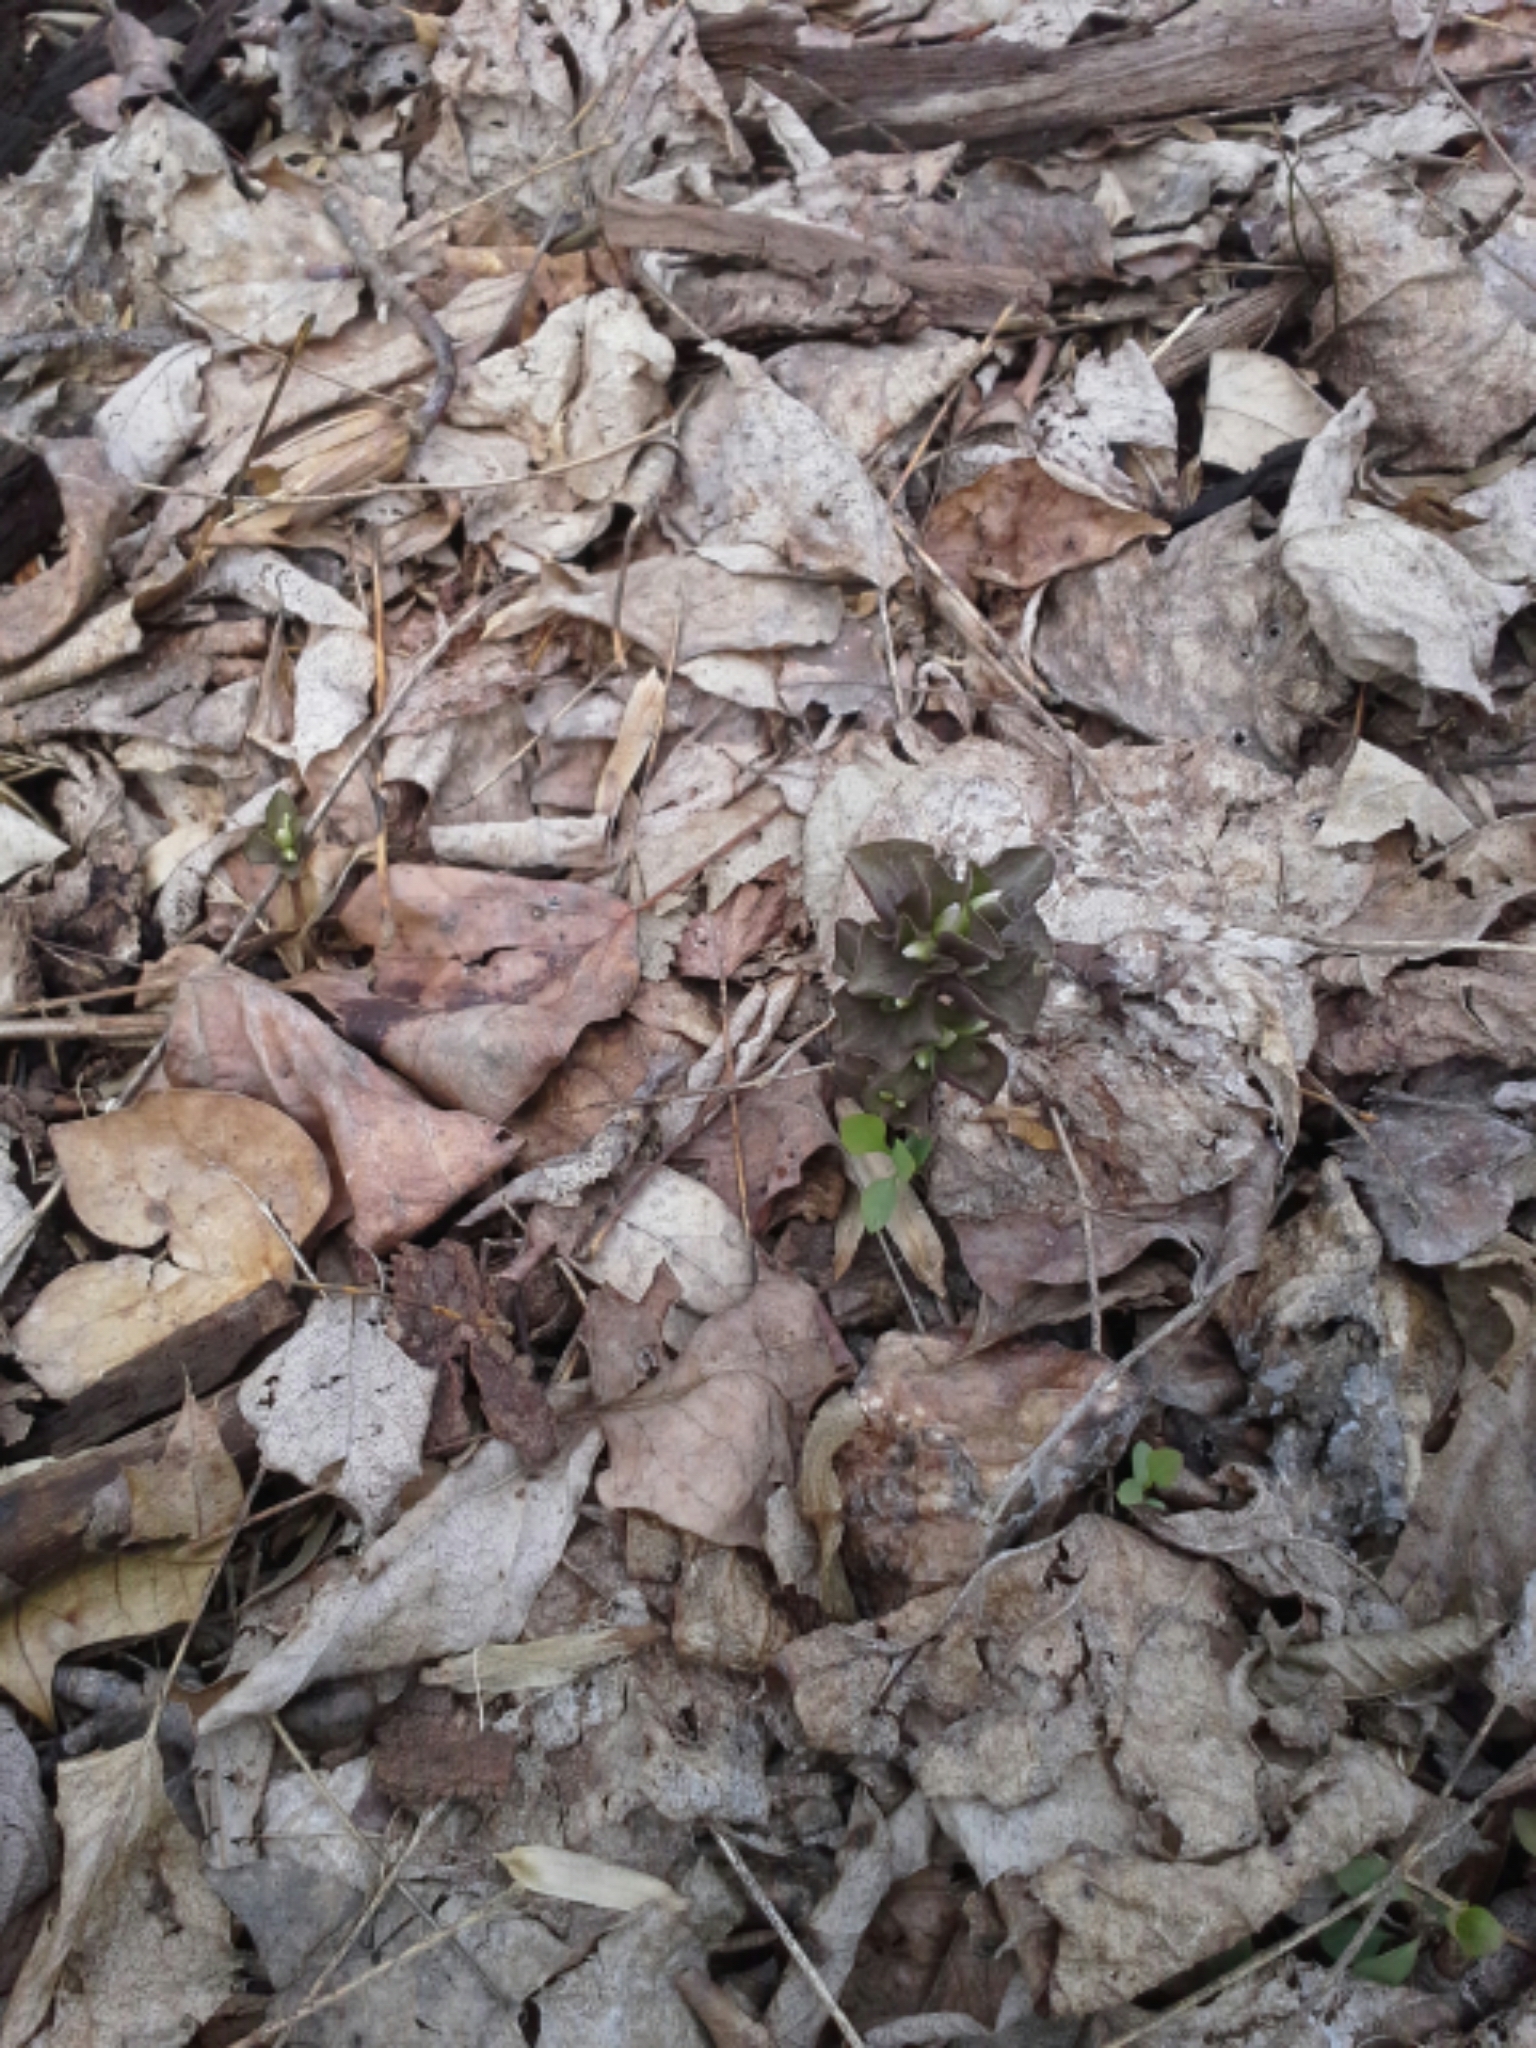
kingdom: Plantae
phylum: Tracheophyta
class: Magnoliopsida
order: Gentianales
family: Gentianaceae
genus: Obolaria
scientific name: Obolaria virginica
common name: Pennywort
